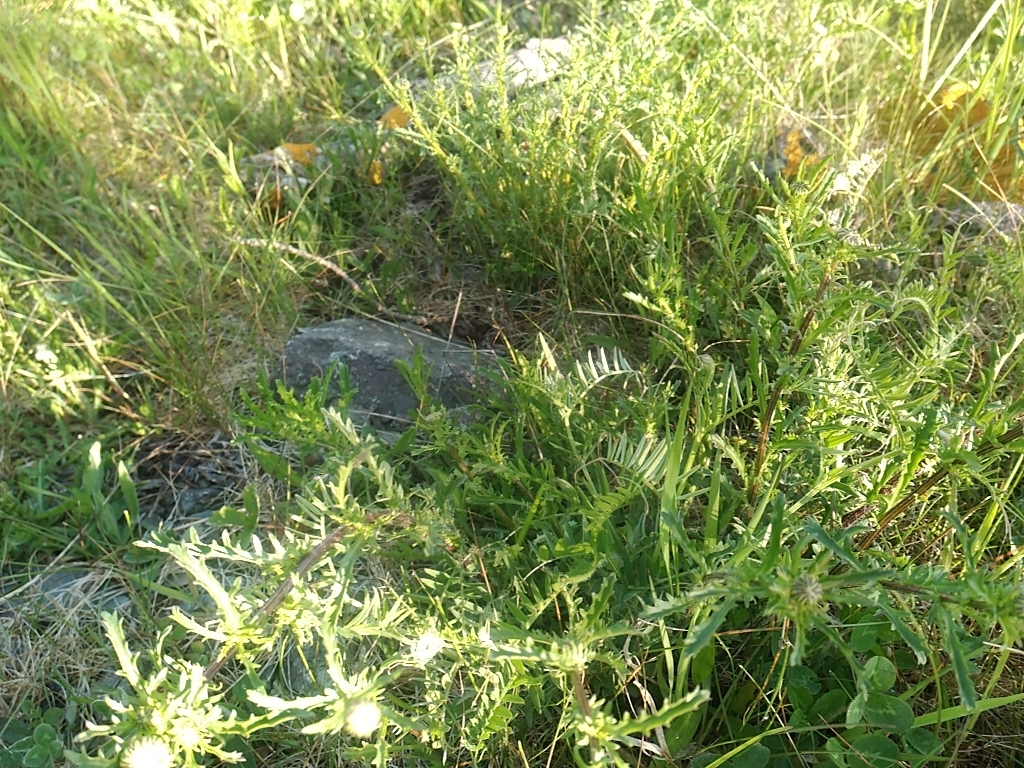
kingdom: Plantae
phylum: Tracheophyta
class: Magnoliopsida
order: Fabales
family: Fabaceae
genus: Vicia
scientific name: Vicia cracca
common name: Bird vetch
